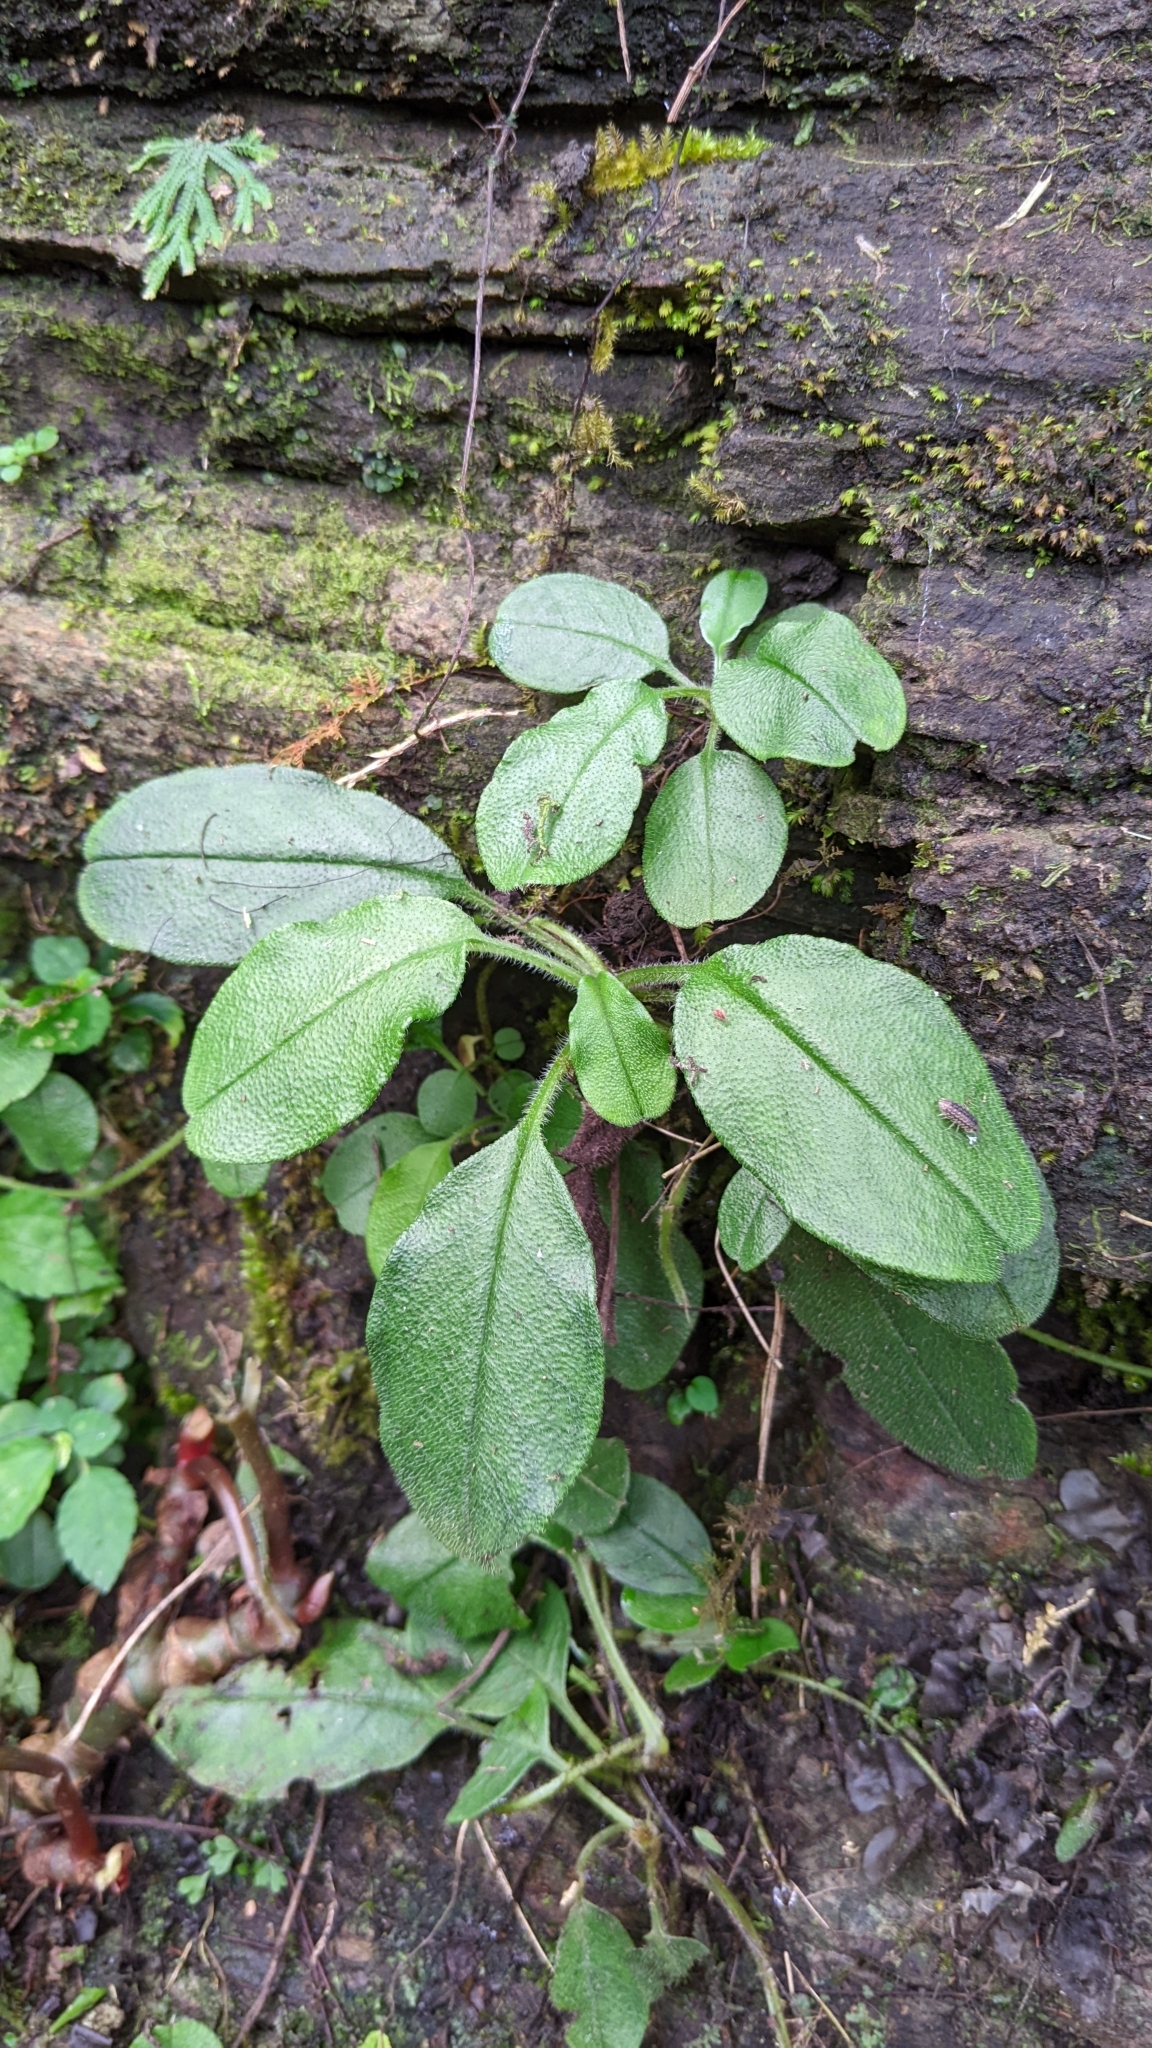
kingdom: Plantae
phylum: Tracheophyta
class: Magnoliopsida
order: Boraginales
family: Boraginaceae
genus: Trigonotis
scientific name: Trigonotis formosana
